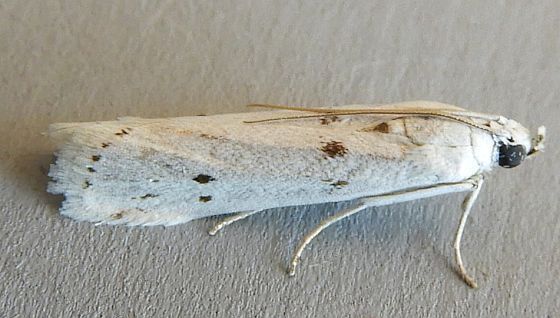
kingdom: Animalia
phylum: Arthropoda
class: Insecta
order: Lepidoptera
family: Pyralidae
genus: Homoeosoma
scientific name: Homoeosoma deceptorium
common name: Black-banded homoeosoma moth
